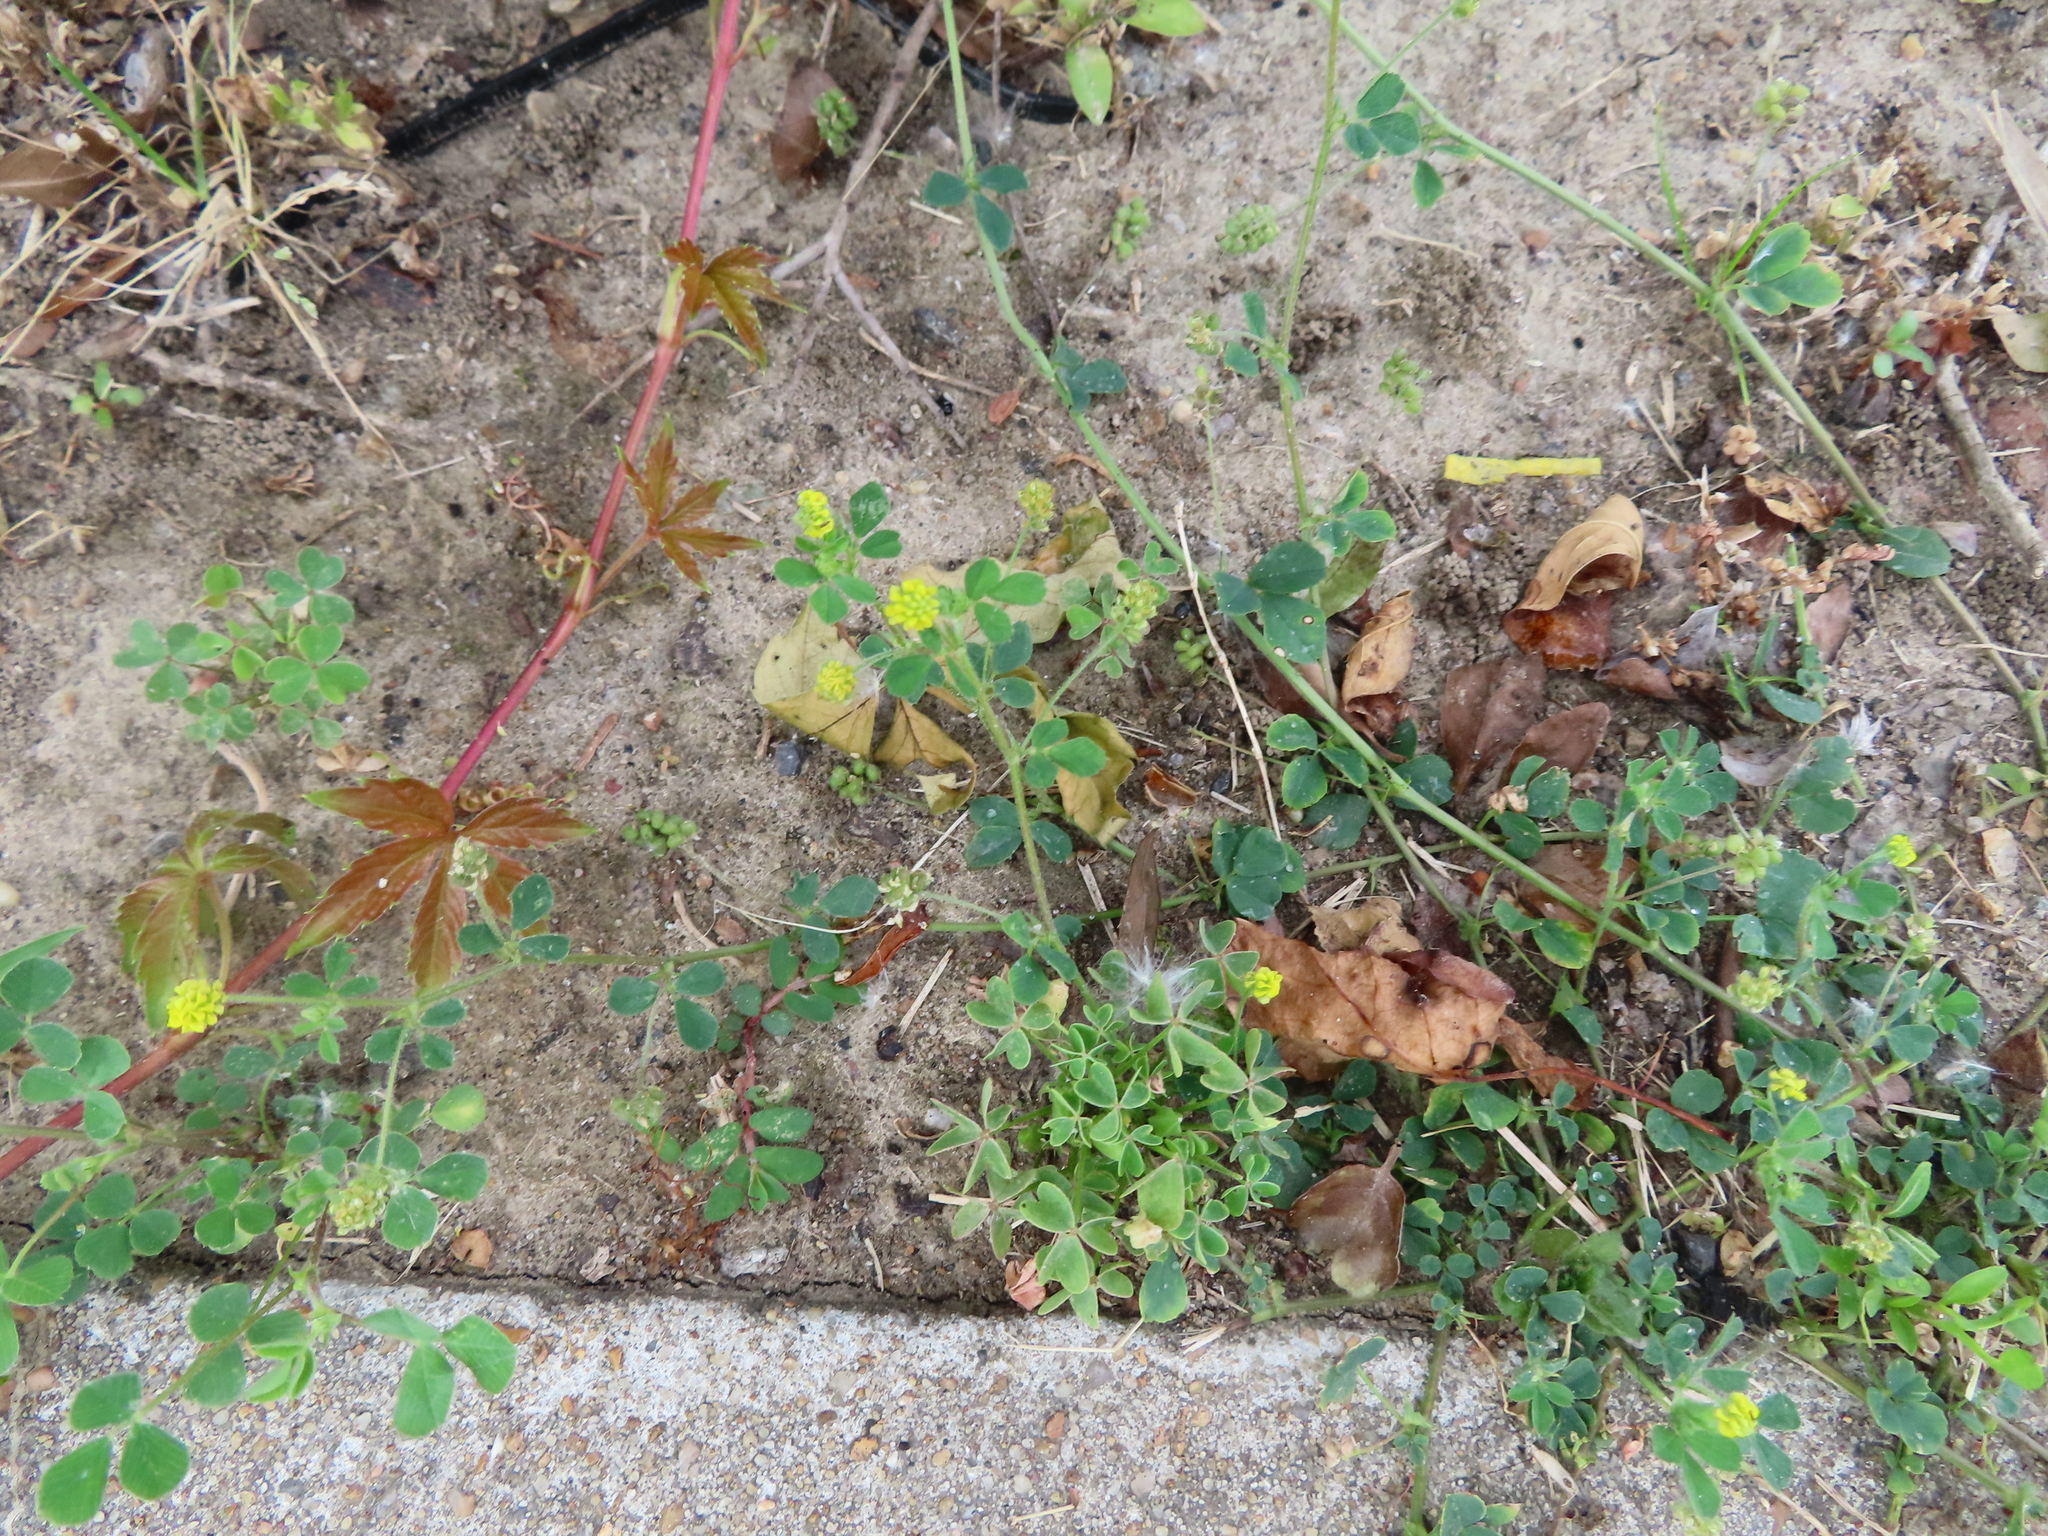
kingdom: Plantae
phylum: Tracheophyta
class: Magnoliopsida
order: Fabales
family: Fabaceae
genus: Medicago
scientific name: Medicago lupulina
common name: Black medick
